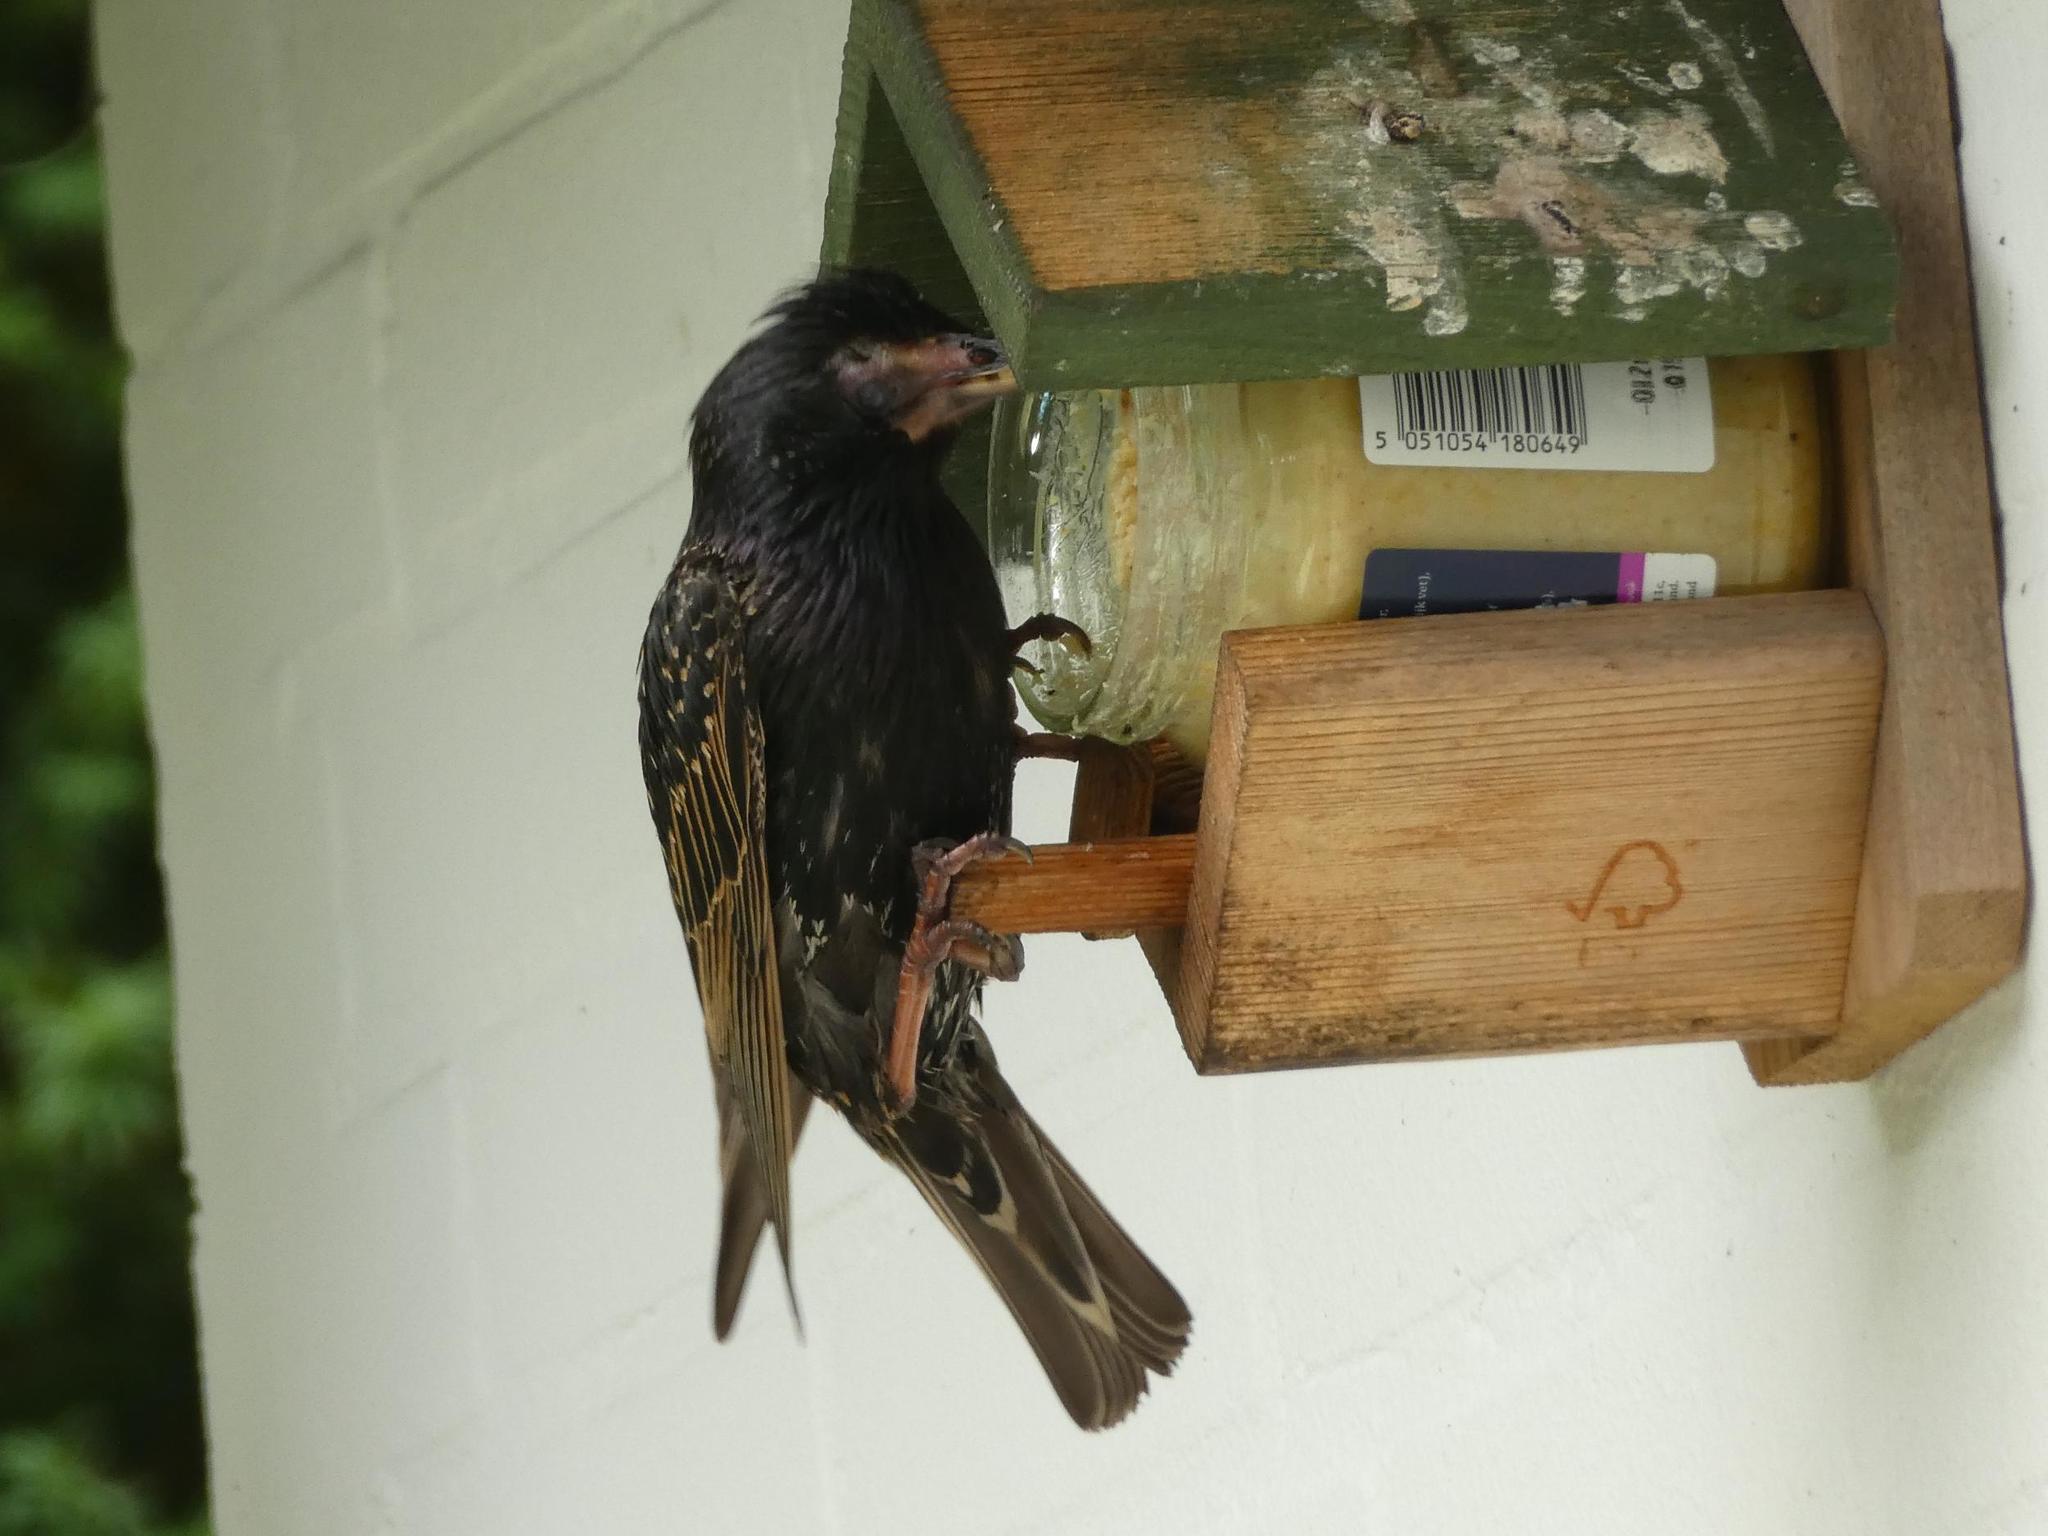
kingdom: Animalia
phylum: Chordata
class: Aves
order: Passeriformes
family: Sturnidae
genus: Sturnus
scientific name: Sturnus vulgaris
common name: Common starling
